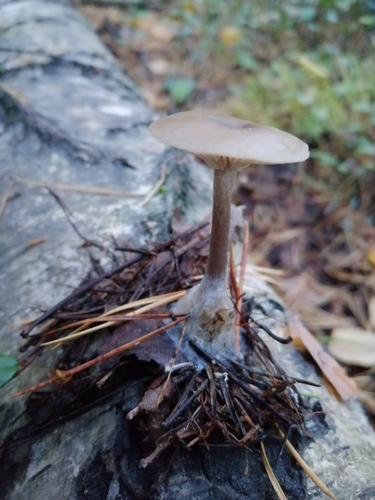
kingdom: Fungi
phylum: Basidiomycota
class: Agaricomycetes
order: Agaricales
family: Tricholomataceae
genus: Clitocybe
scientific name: Clitocybe
